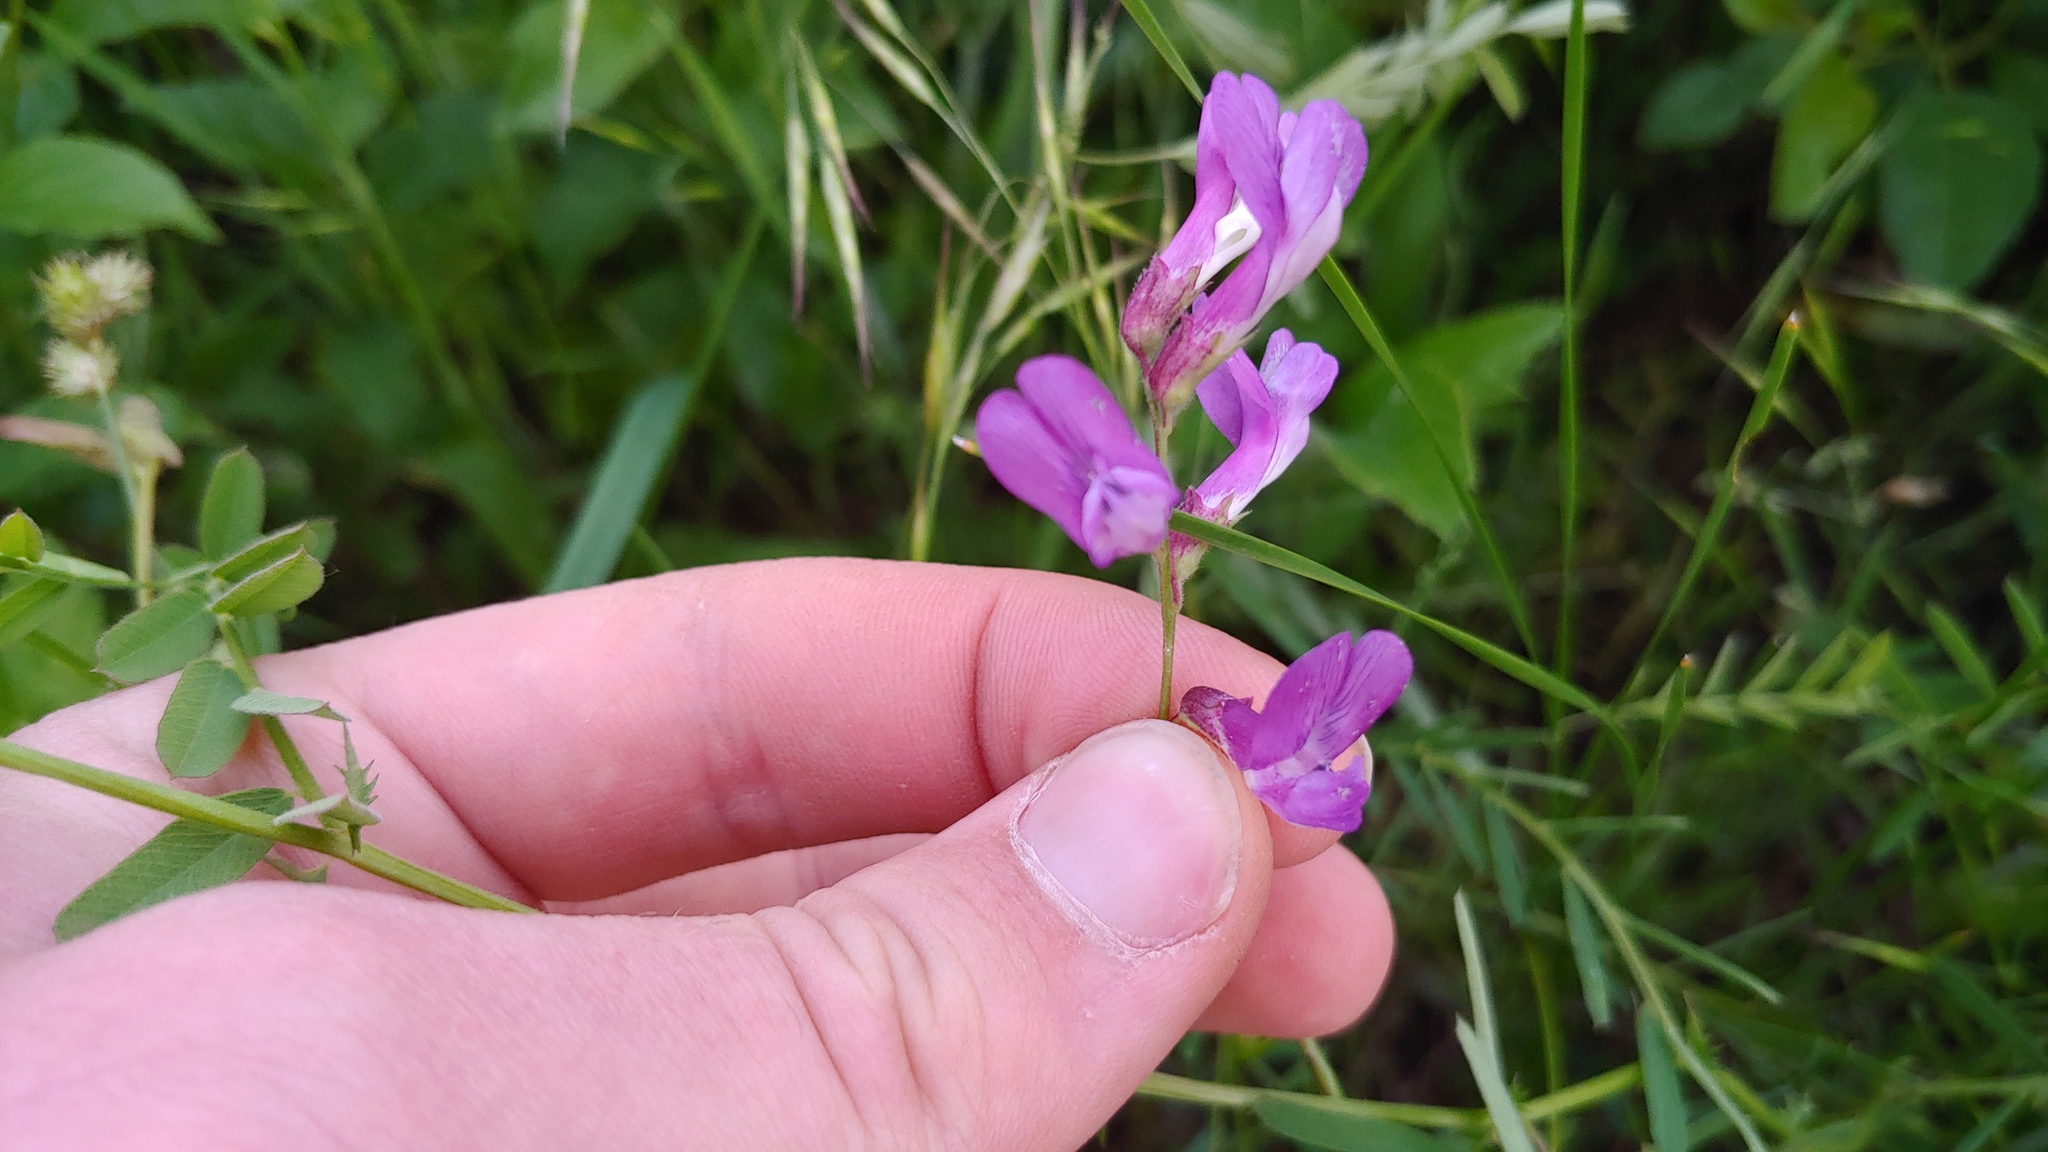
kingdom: Plantae
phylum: Tracheophyta
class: Magnoliopsida
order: Fabales
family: Fabaceae
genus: Vicia
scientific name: Vicia americana
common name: American vetch
